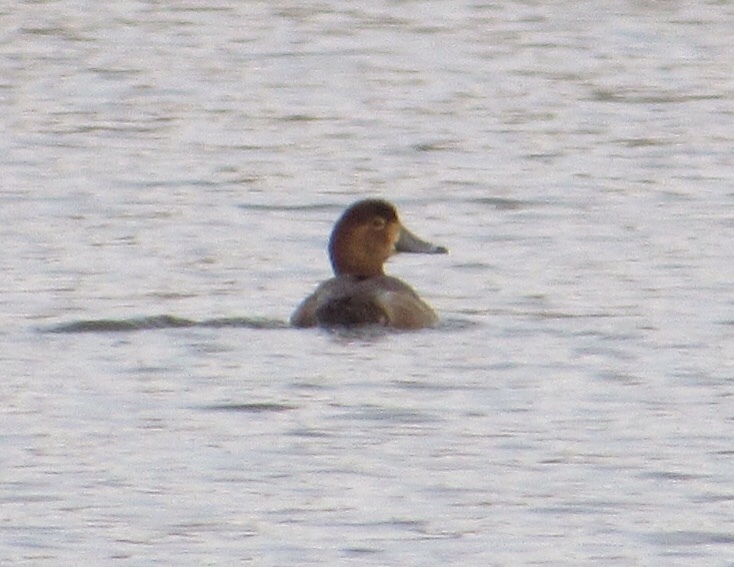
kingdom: Animalia
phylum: Chordata
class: Aves
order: Anseriformes
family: Anatidae
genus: Aythya
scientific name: Aythya americana
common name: Redhead
